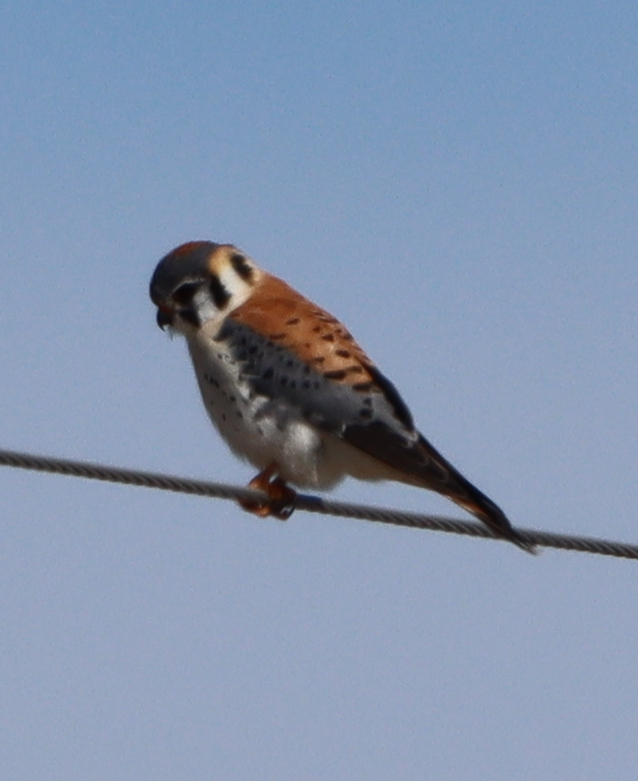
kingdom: Animalia
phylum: Chordata
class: Aves
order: Falconiformes
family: Falconidae
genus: Falco
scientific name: Falco sparverius
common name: American kestrel
